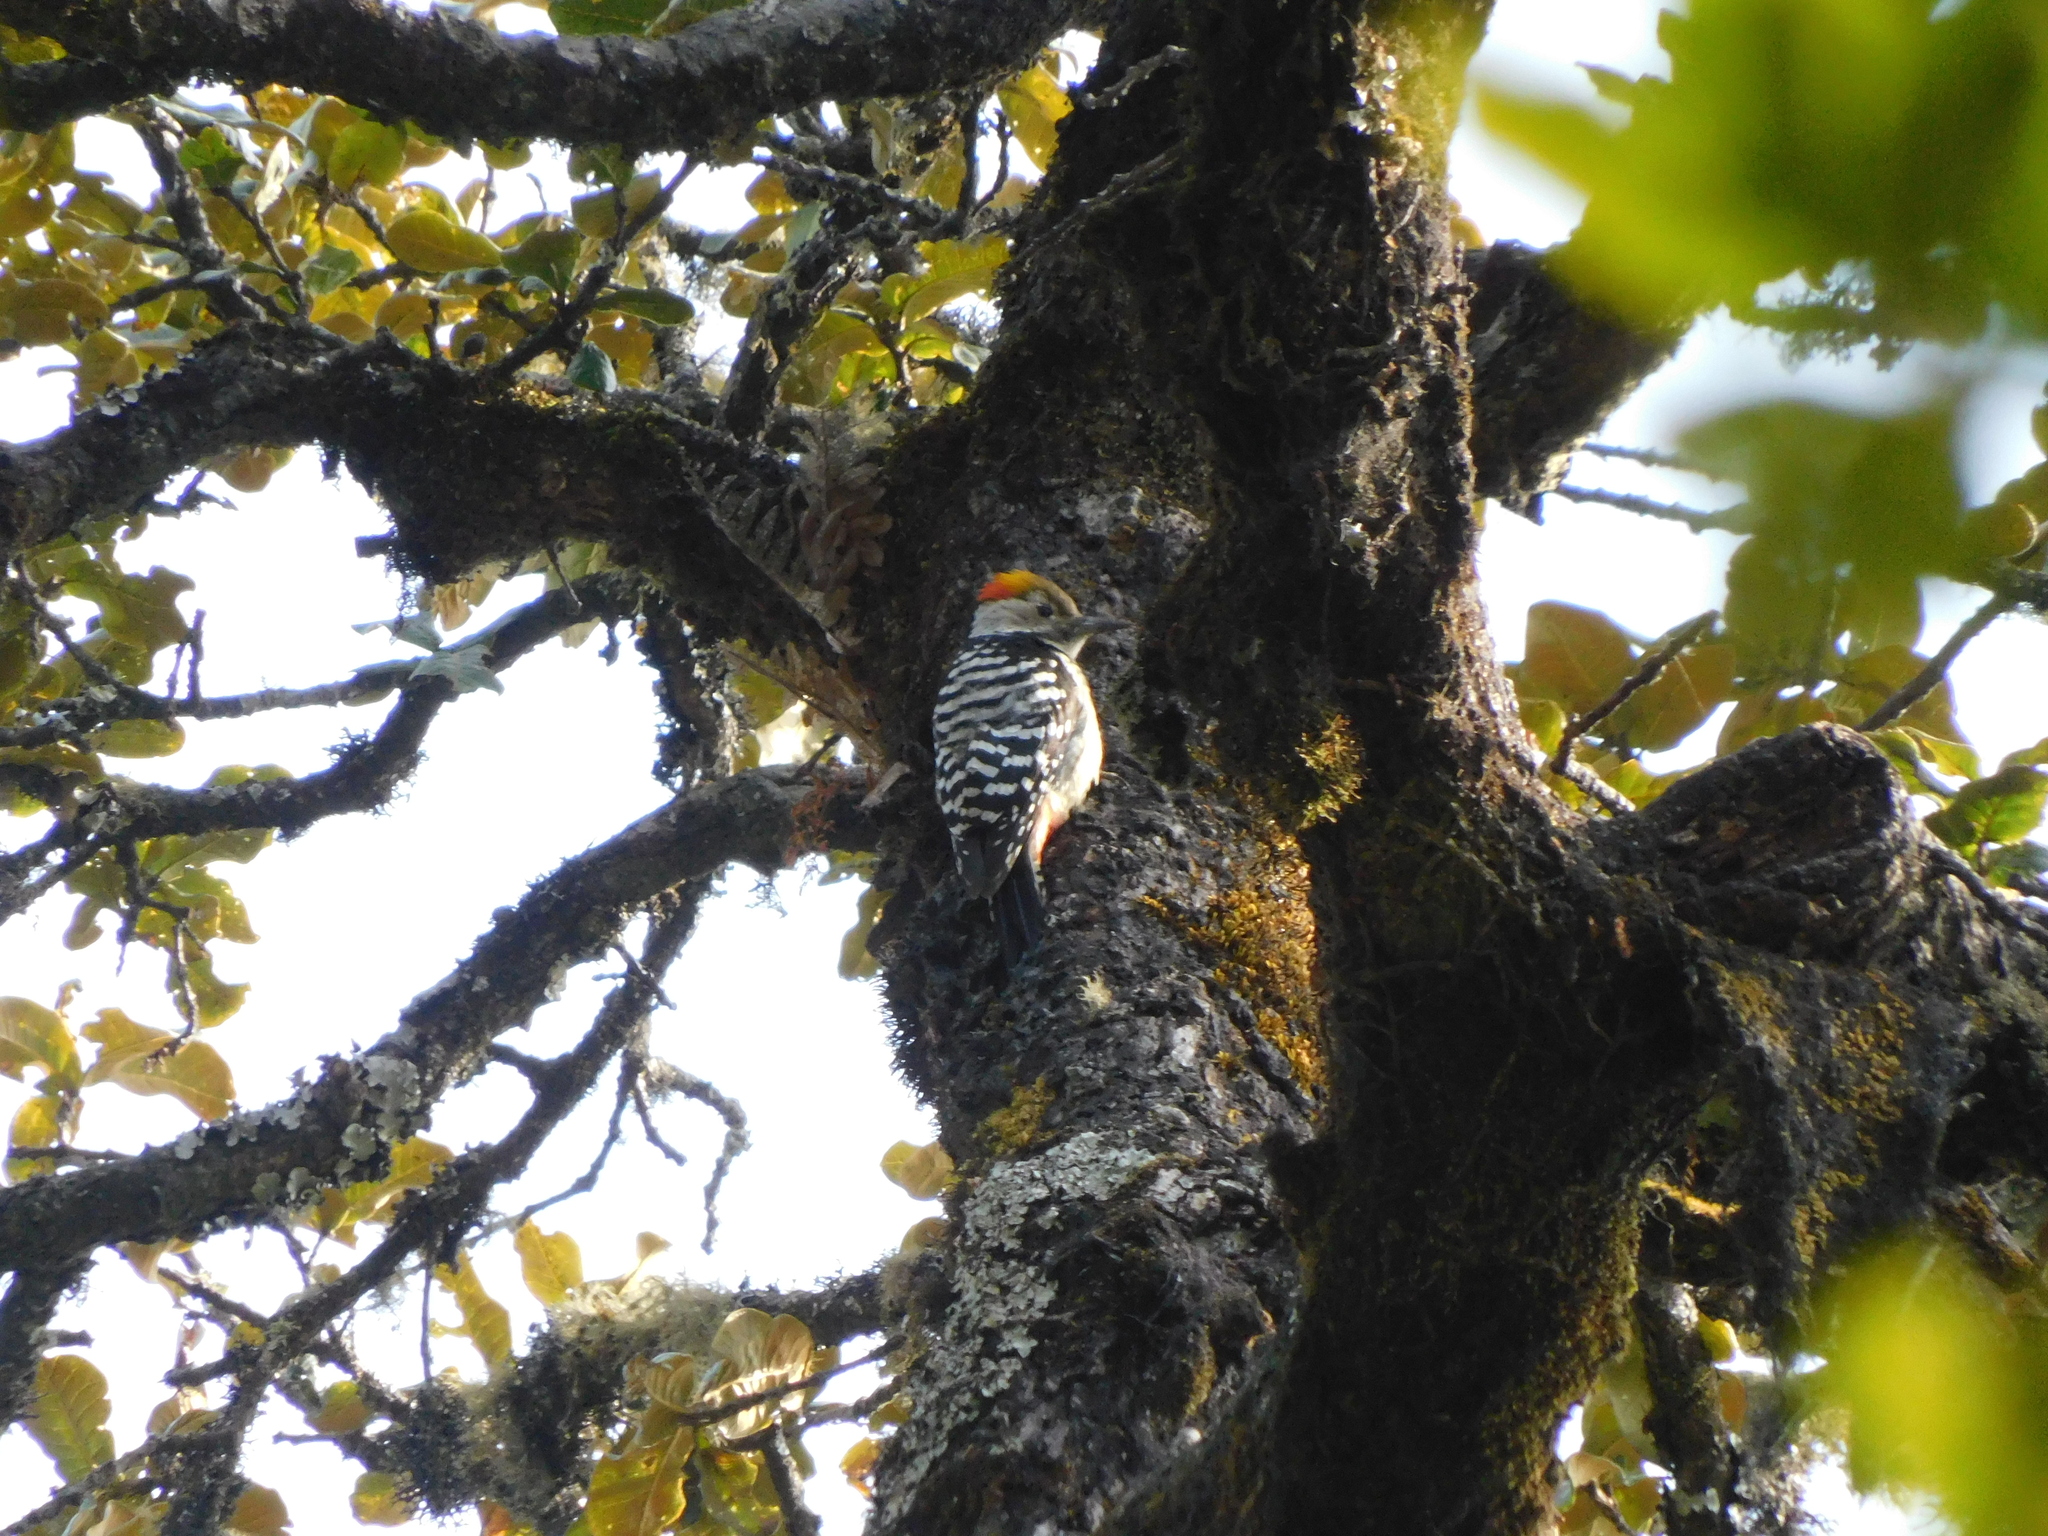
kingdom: Animalia
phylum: Chordata
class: Aves
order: Piciformes
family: Picidae
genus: Dendrocoptes
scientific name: Dendrocoptes auriceps
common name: Brown-fronted woodpecker
